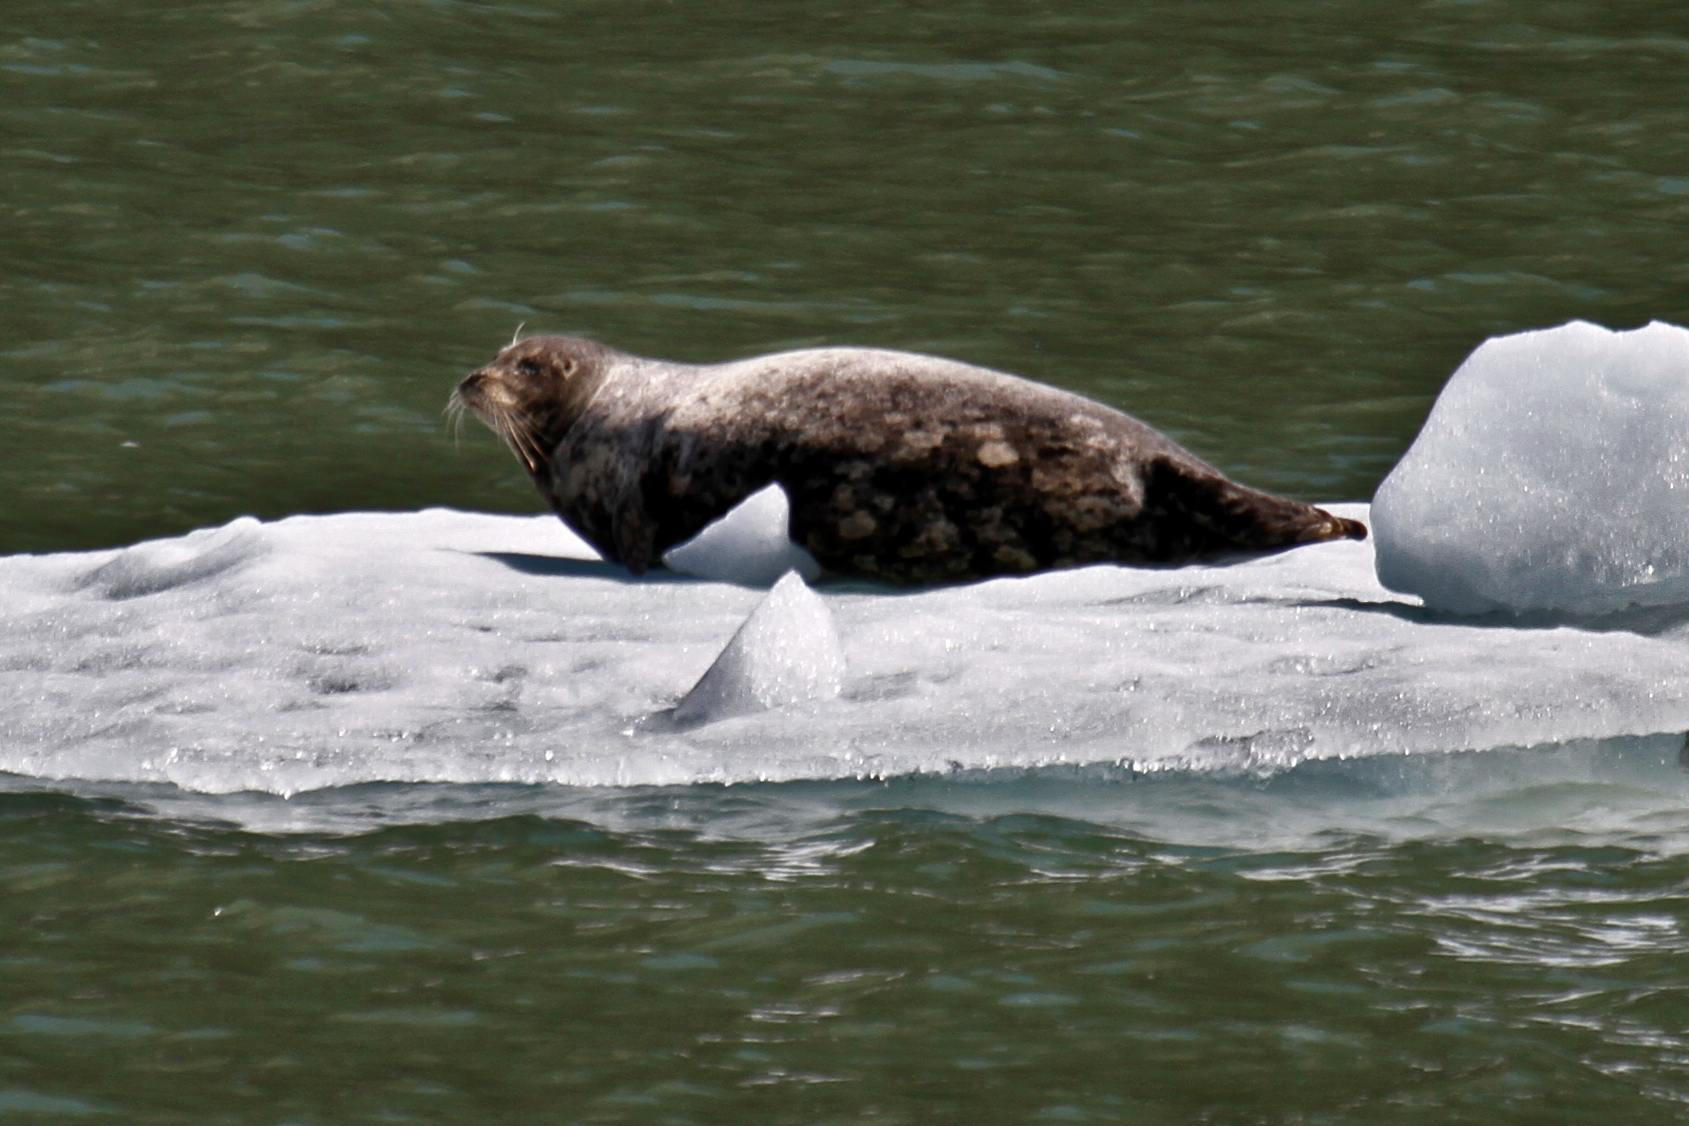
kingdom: Animalia
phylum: Chordata
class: Mammalia
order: Carnivora
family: Phocidae
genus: Phoca
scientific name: Phoca vitulina
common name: Harbor seal
